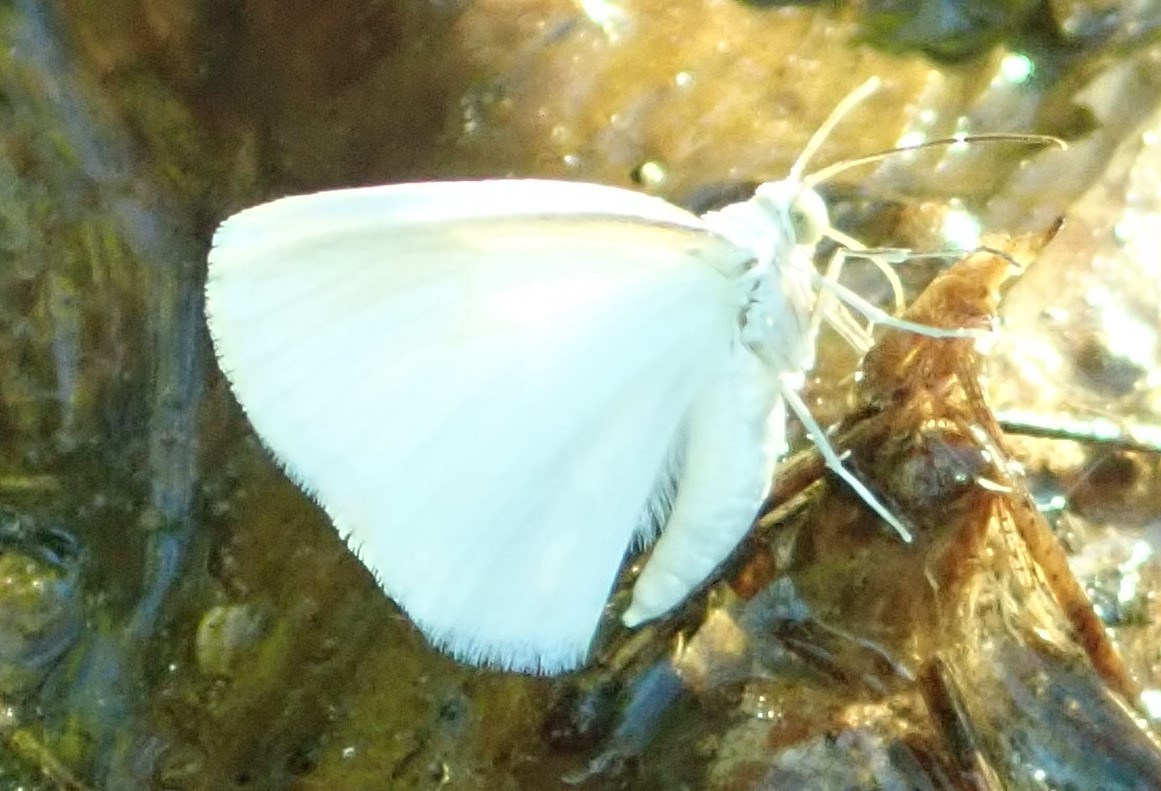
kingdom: Animalia
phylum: Arthropoda
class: Insecta
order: Lepidoptera
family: Geometridae
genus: Lomographa
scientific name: Lomographa vestaliata
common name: White spring moth
